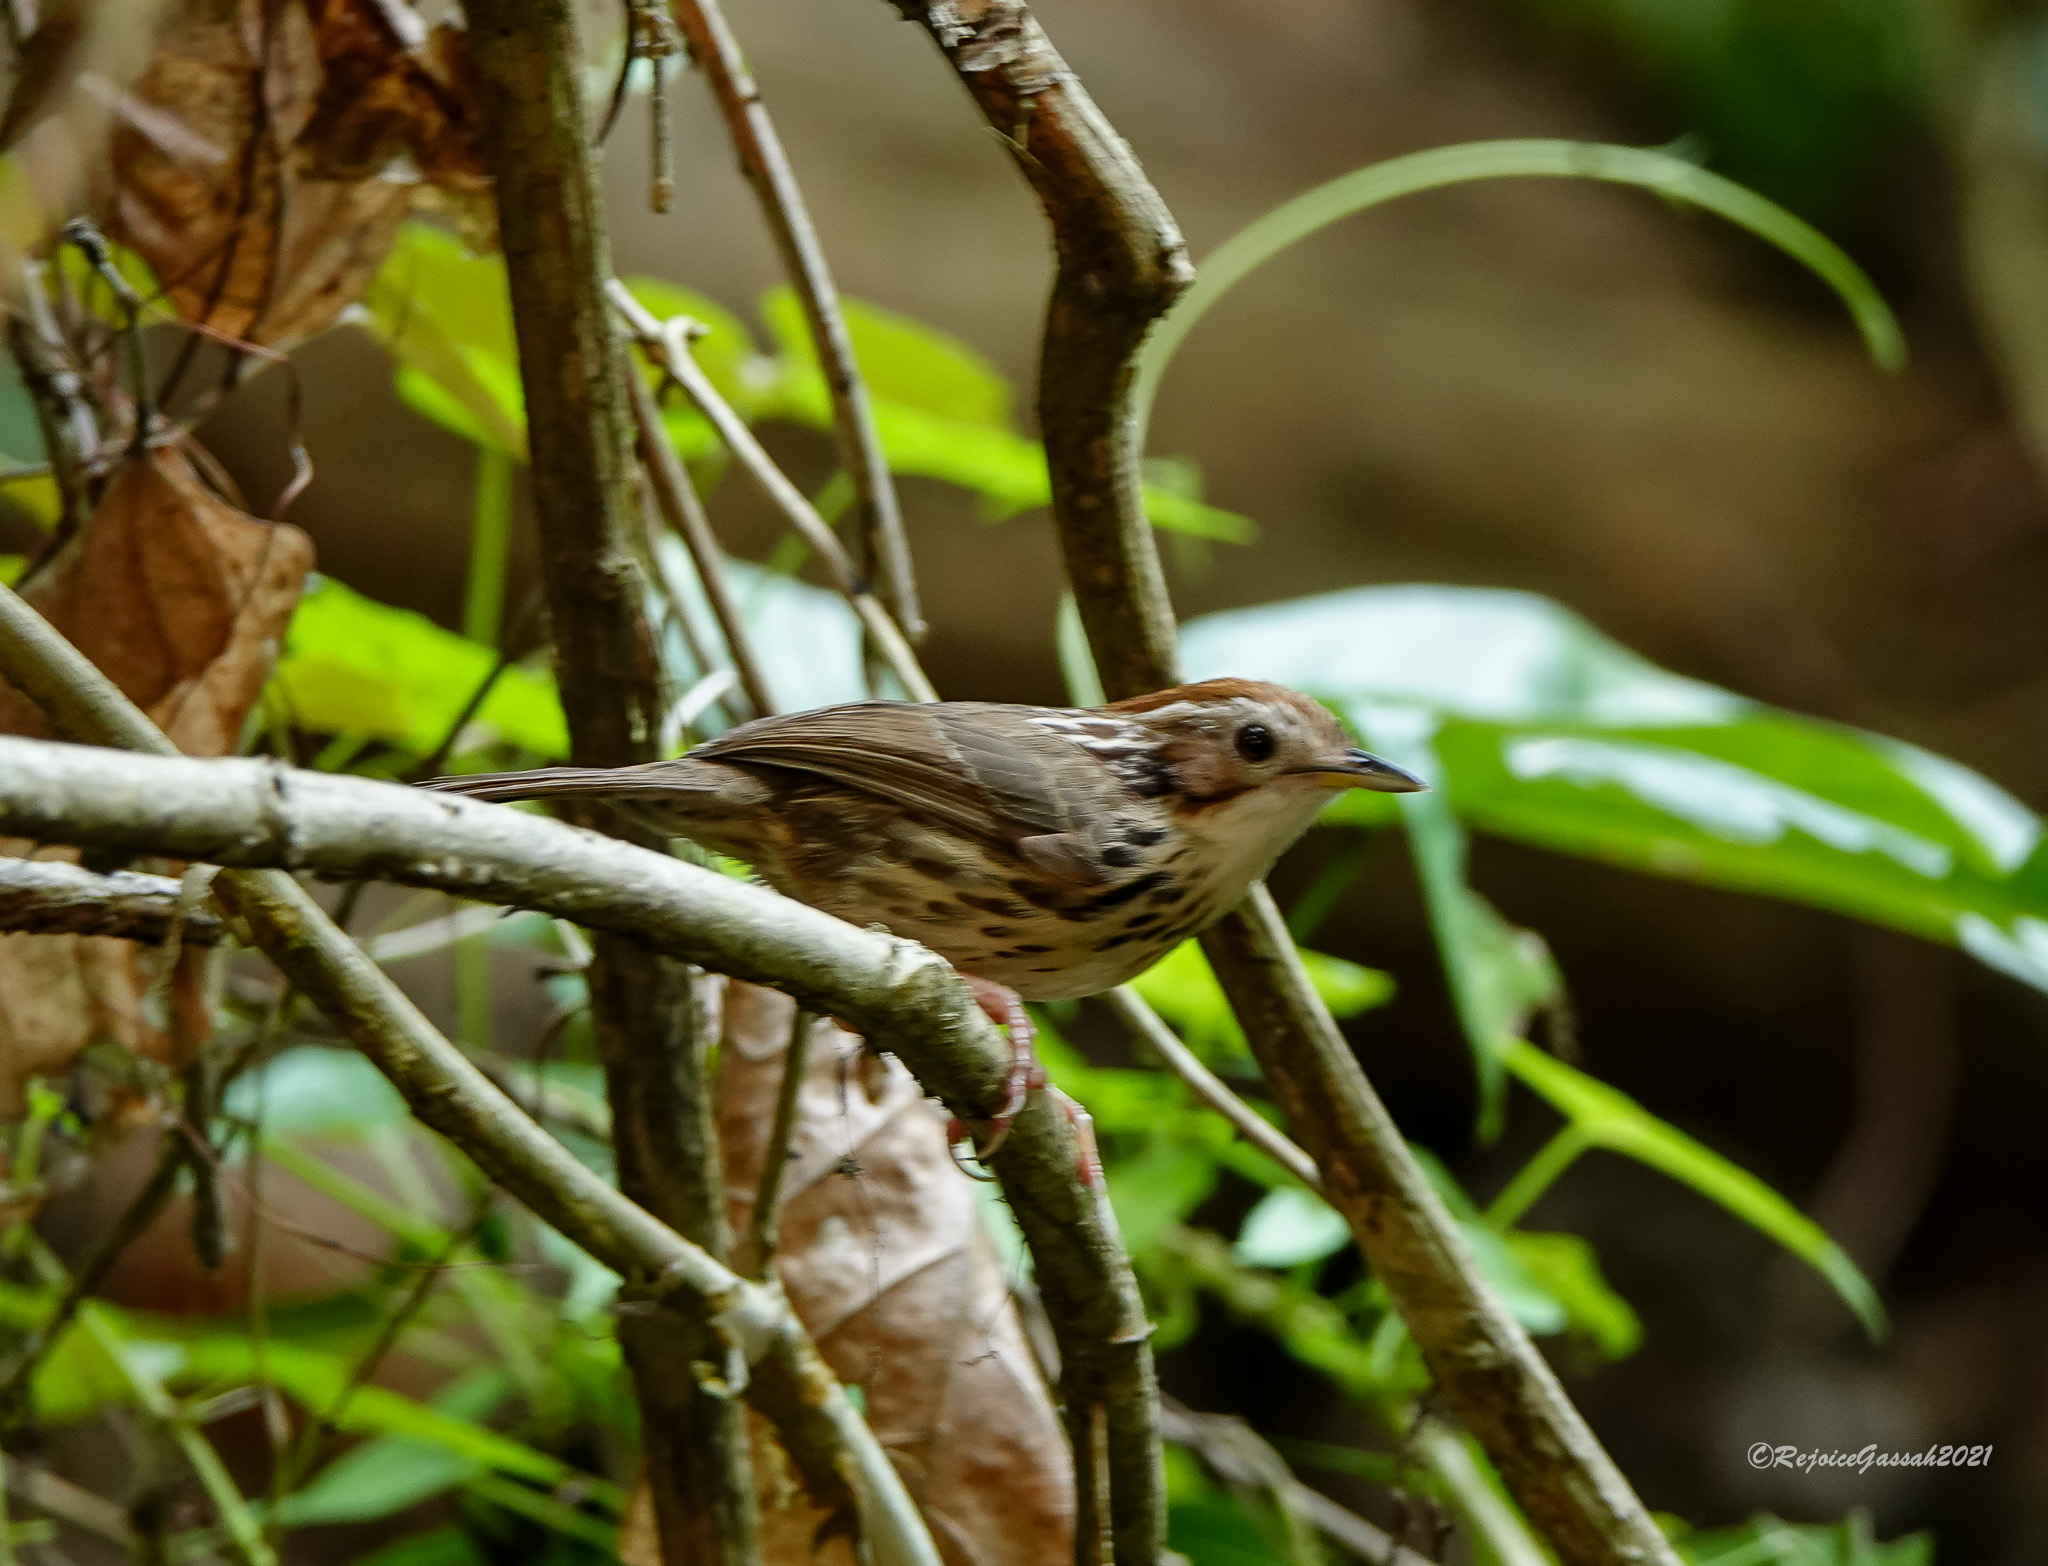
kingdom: Animalia
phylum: Chordata
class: Aves
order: Passeriformes
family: Pellorneidae
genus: Pellorneum
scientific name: Pellorneum ruficeps
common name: Puff-throated babbler
